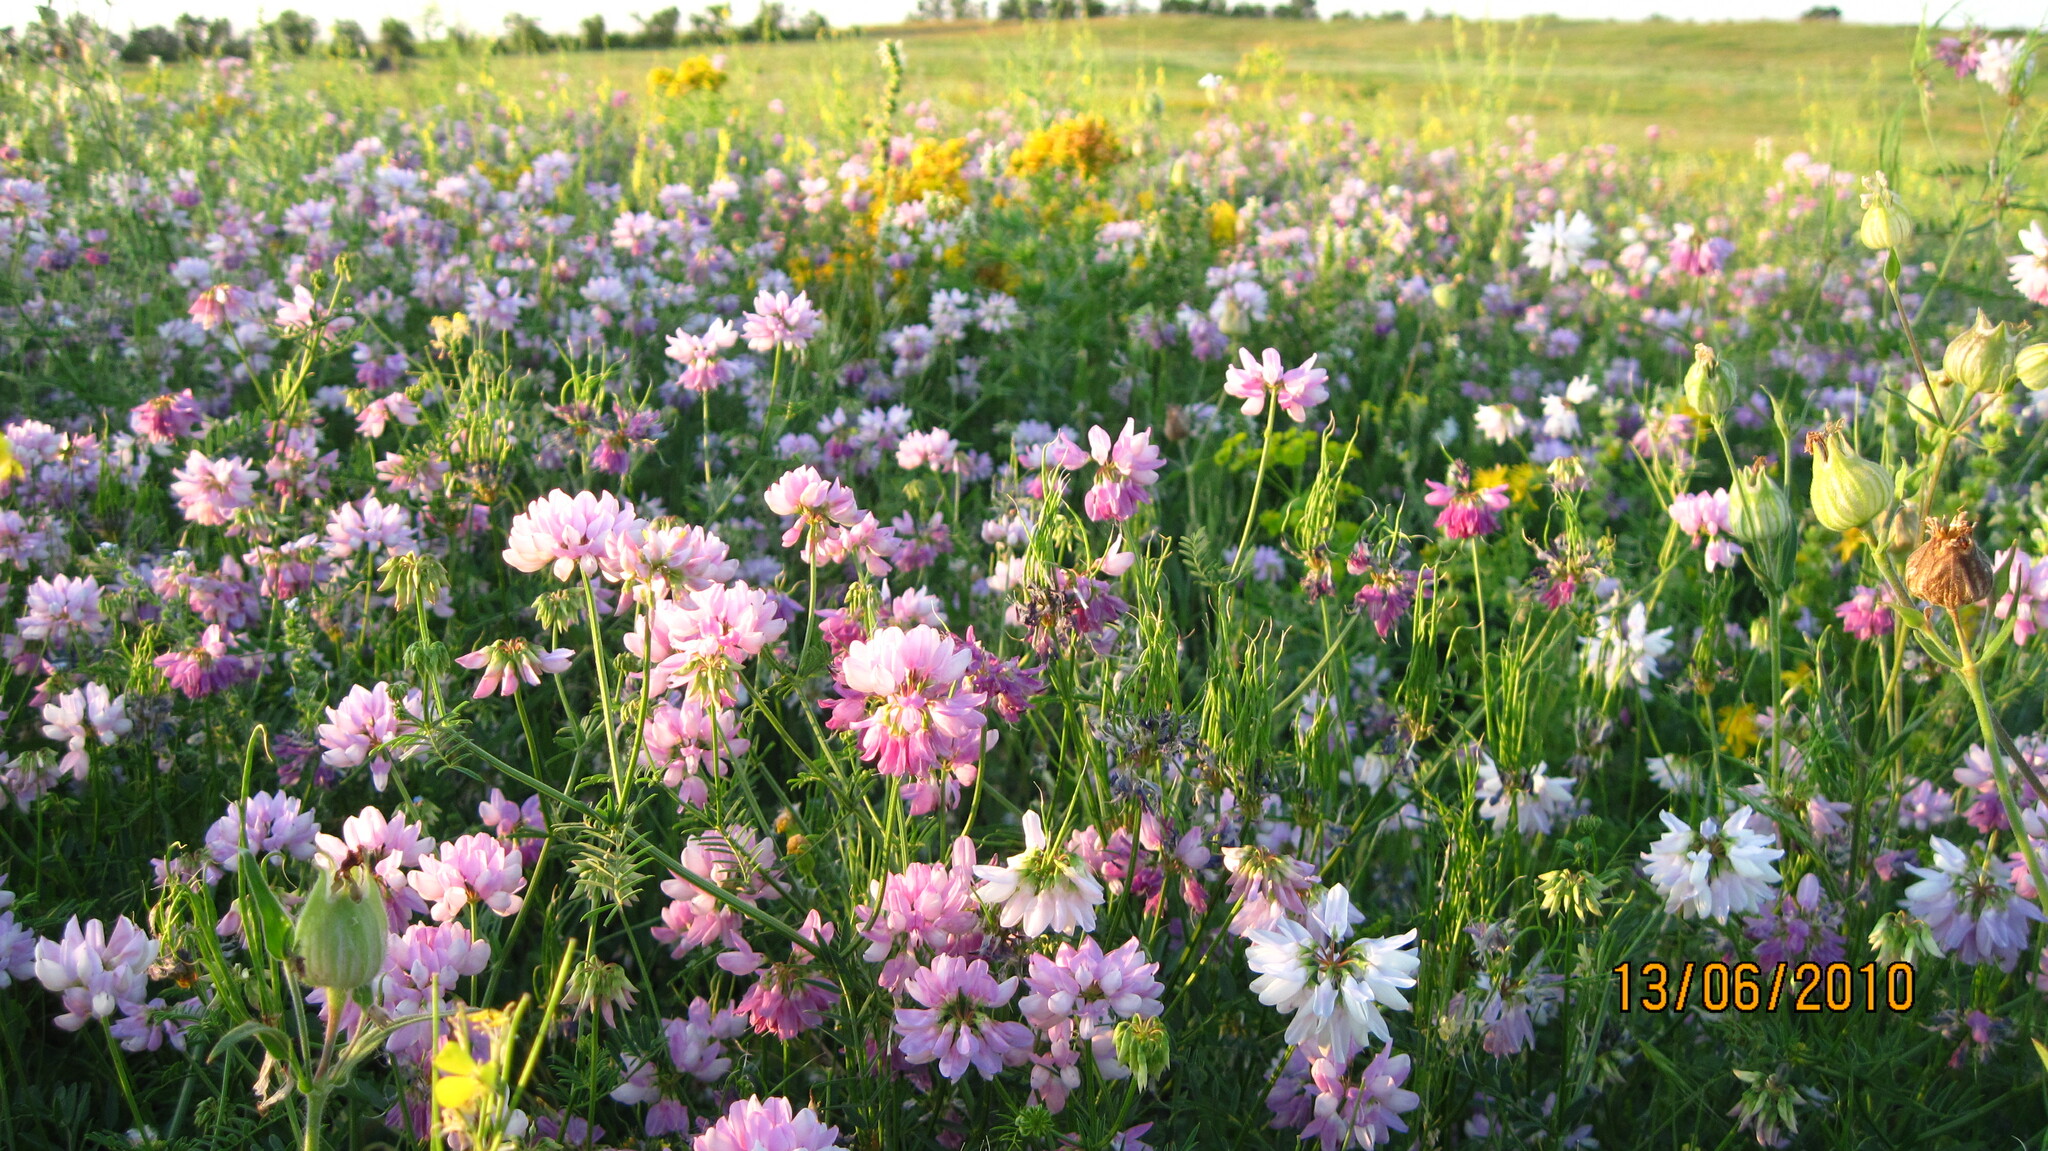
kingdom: Plantae
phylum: Tracheophyta
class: Magnoliopsida
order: Fabales
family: Fabaceae
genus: Coronilla
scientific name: Coronilla varia
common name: Crownvetch
